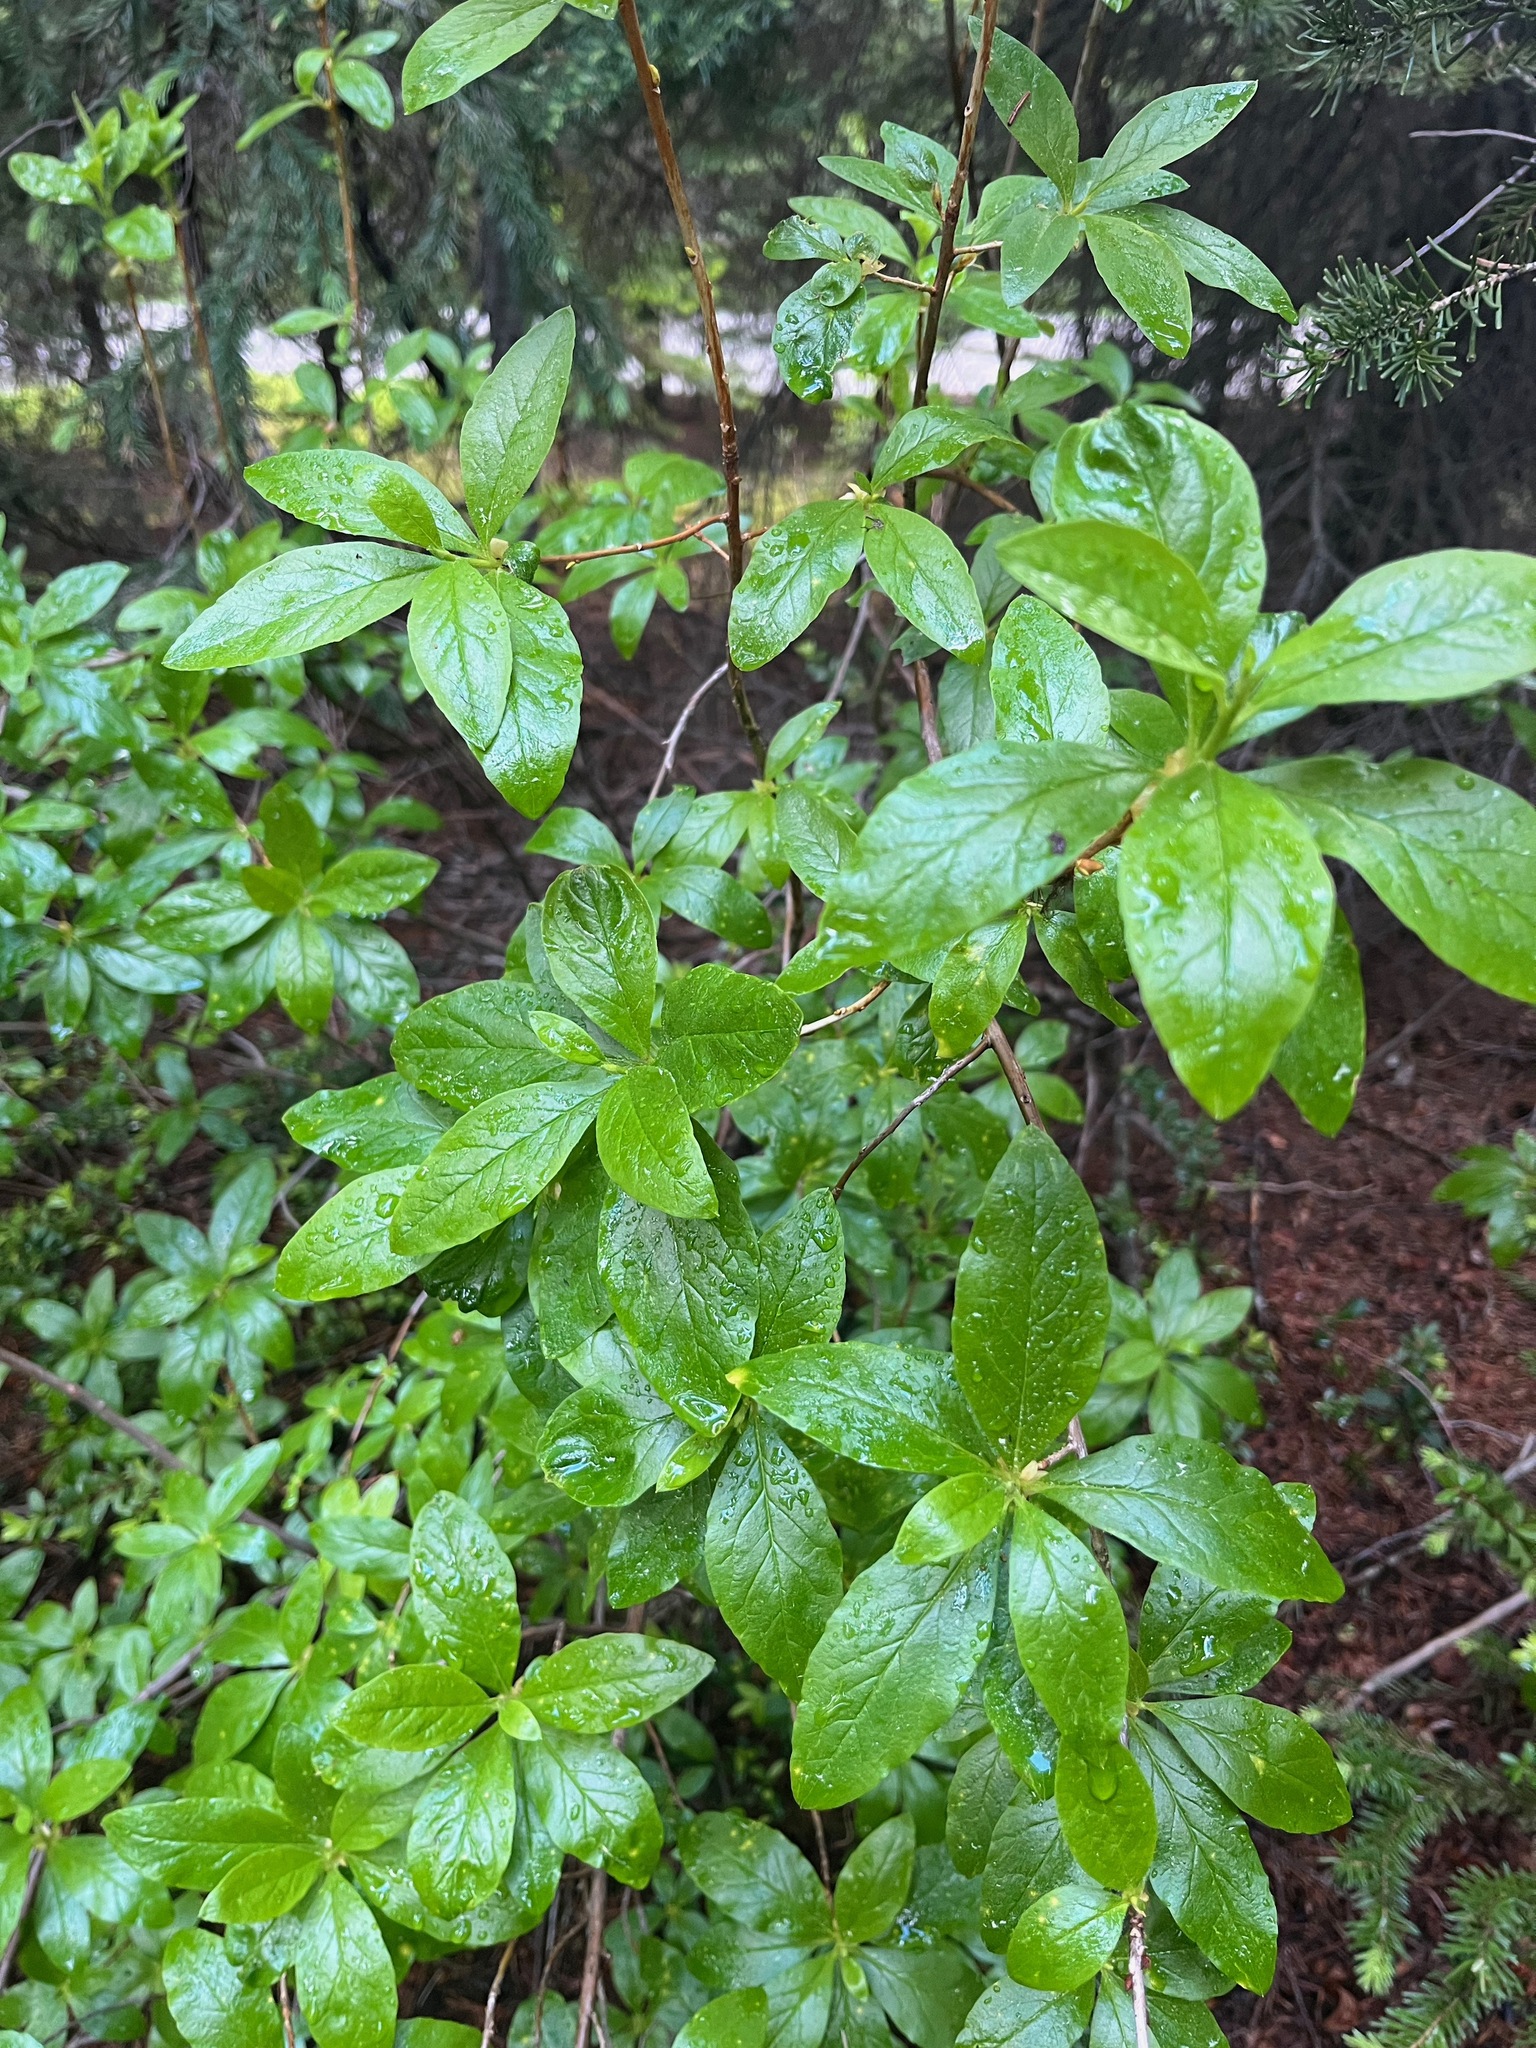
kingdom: Plantae
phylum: Tracheophyta
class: Magnoliopsida
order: Ericales
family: Ericaceae
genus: Rhododendron
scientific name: Rhododendron albiflorum
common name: White rhododendron
